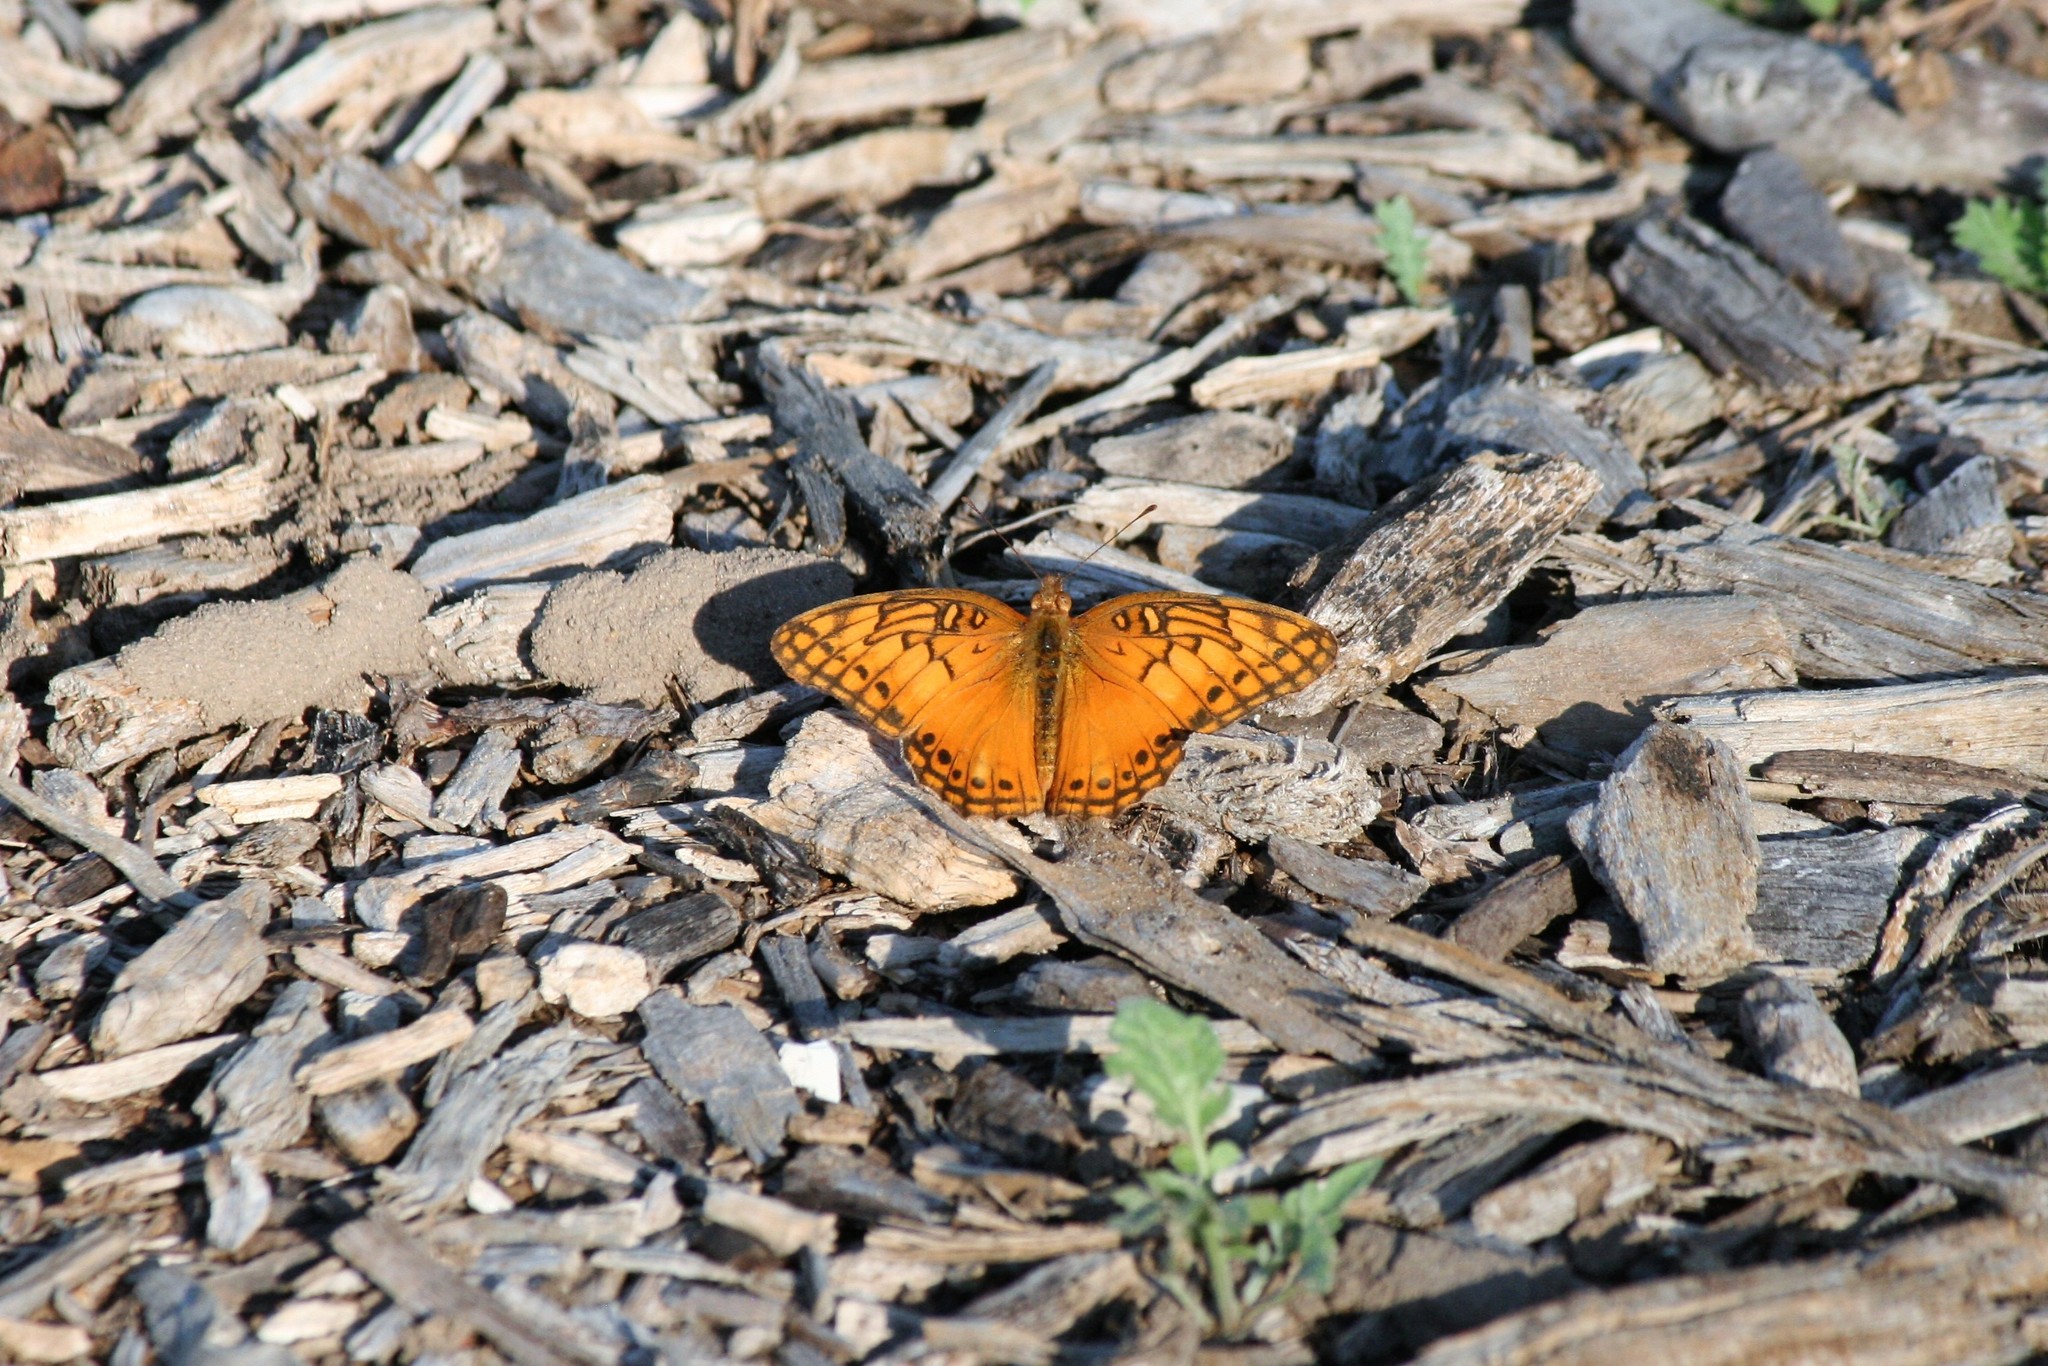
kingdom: Animalia
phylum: Arthropoda
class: Insecta
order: Lepidoptera
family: Nymphalidae
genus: Euptoieta
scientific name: Euptoieta hegesia
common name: Mexican fritillary
